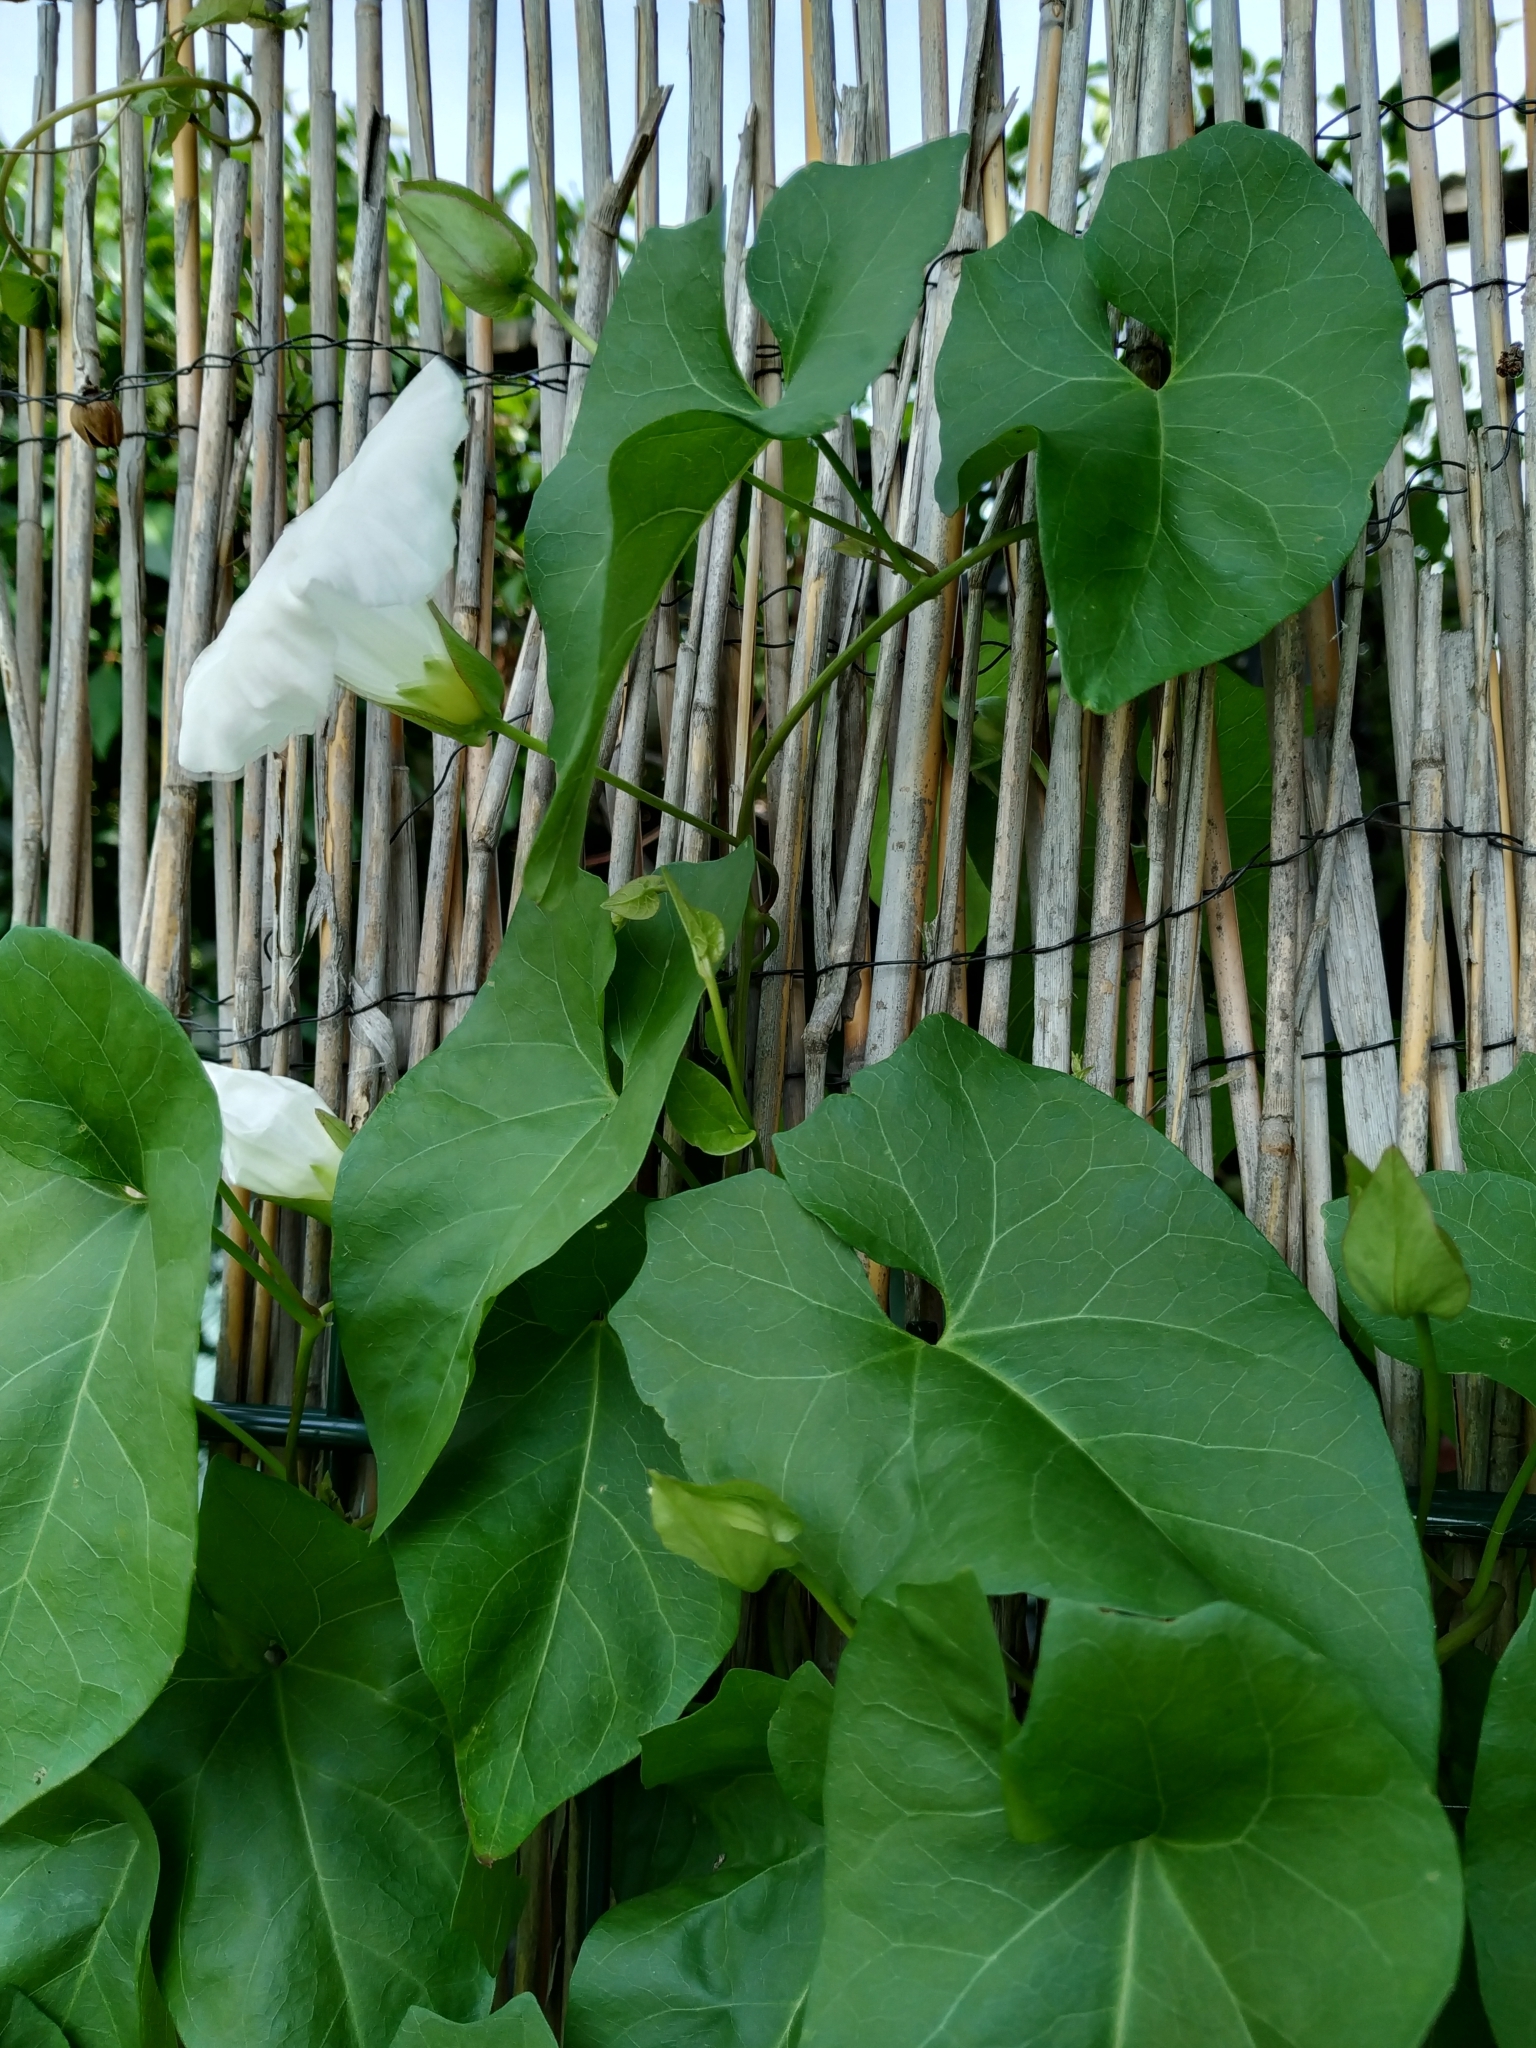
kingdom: Plantae
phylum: Tracheophyta
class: Magnoliopsida
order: Solanales
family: Convolvulaceae
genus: Calystegia
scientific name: Calystegia sepium
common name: Hedge bindweed
